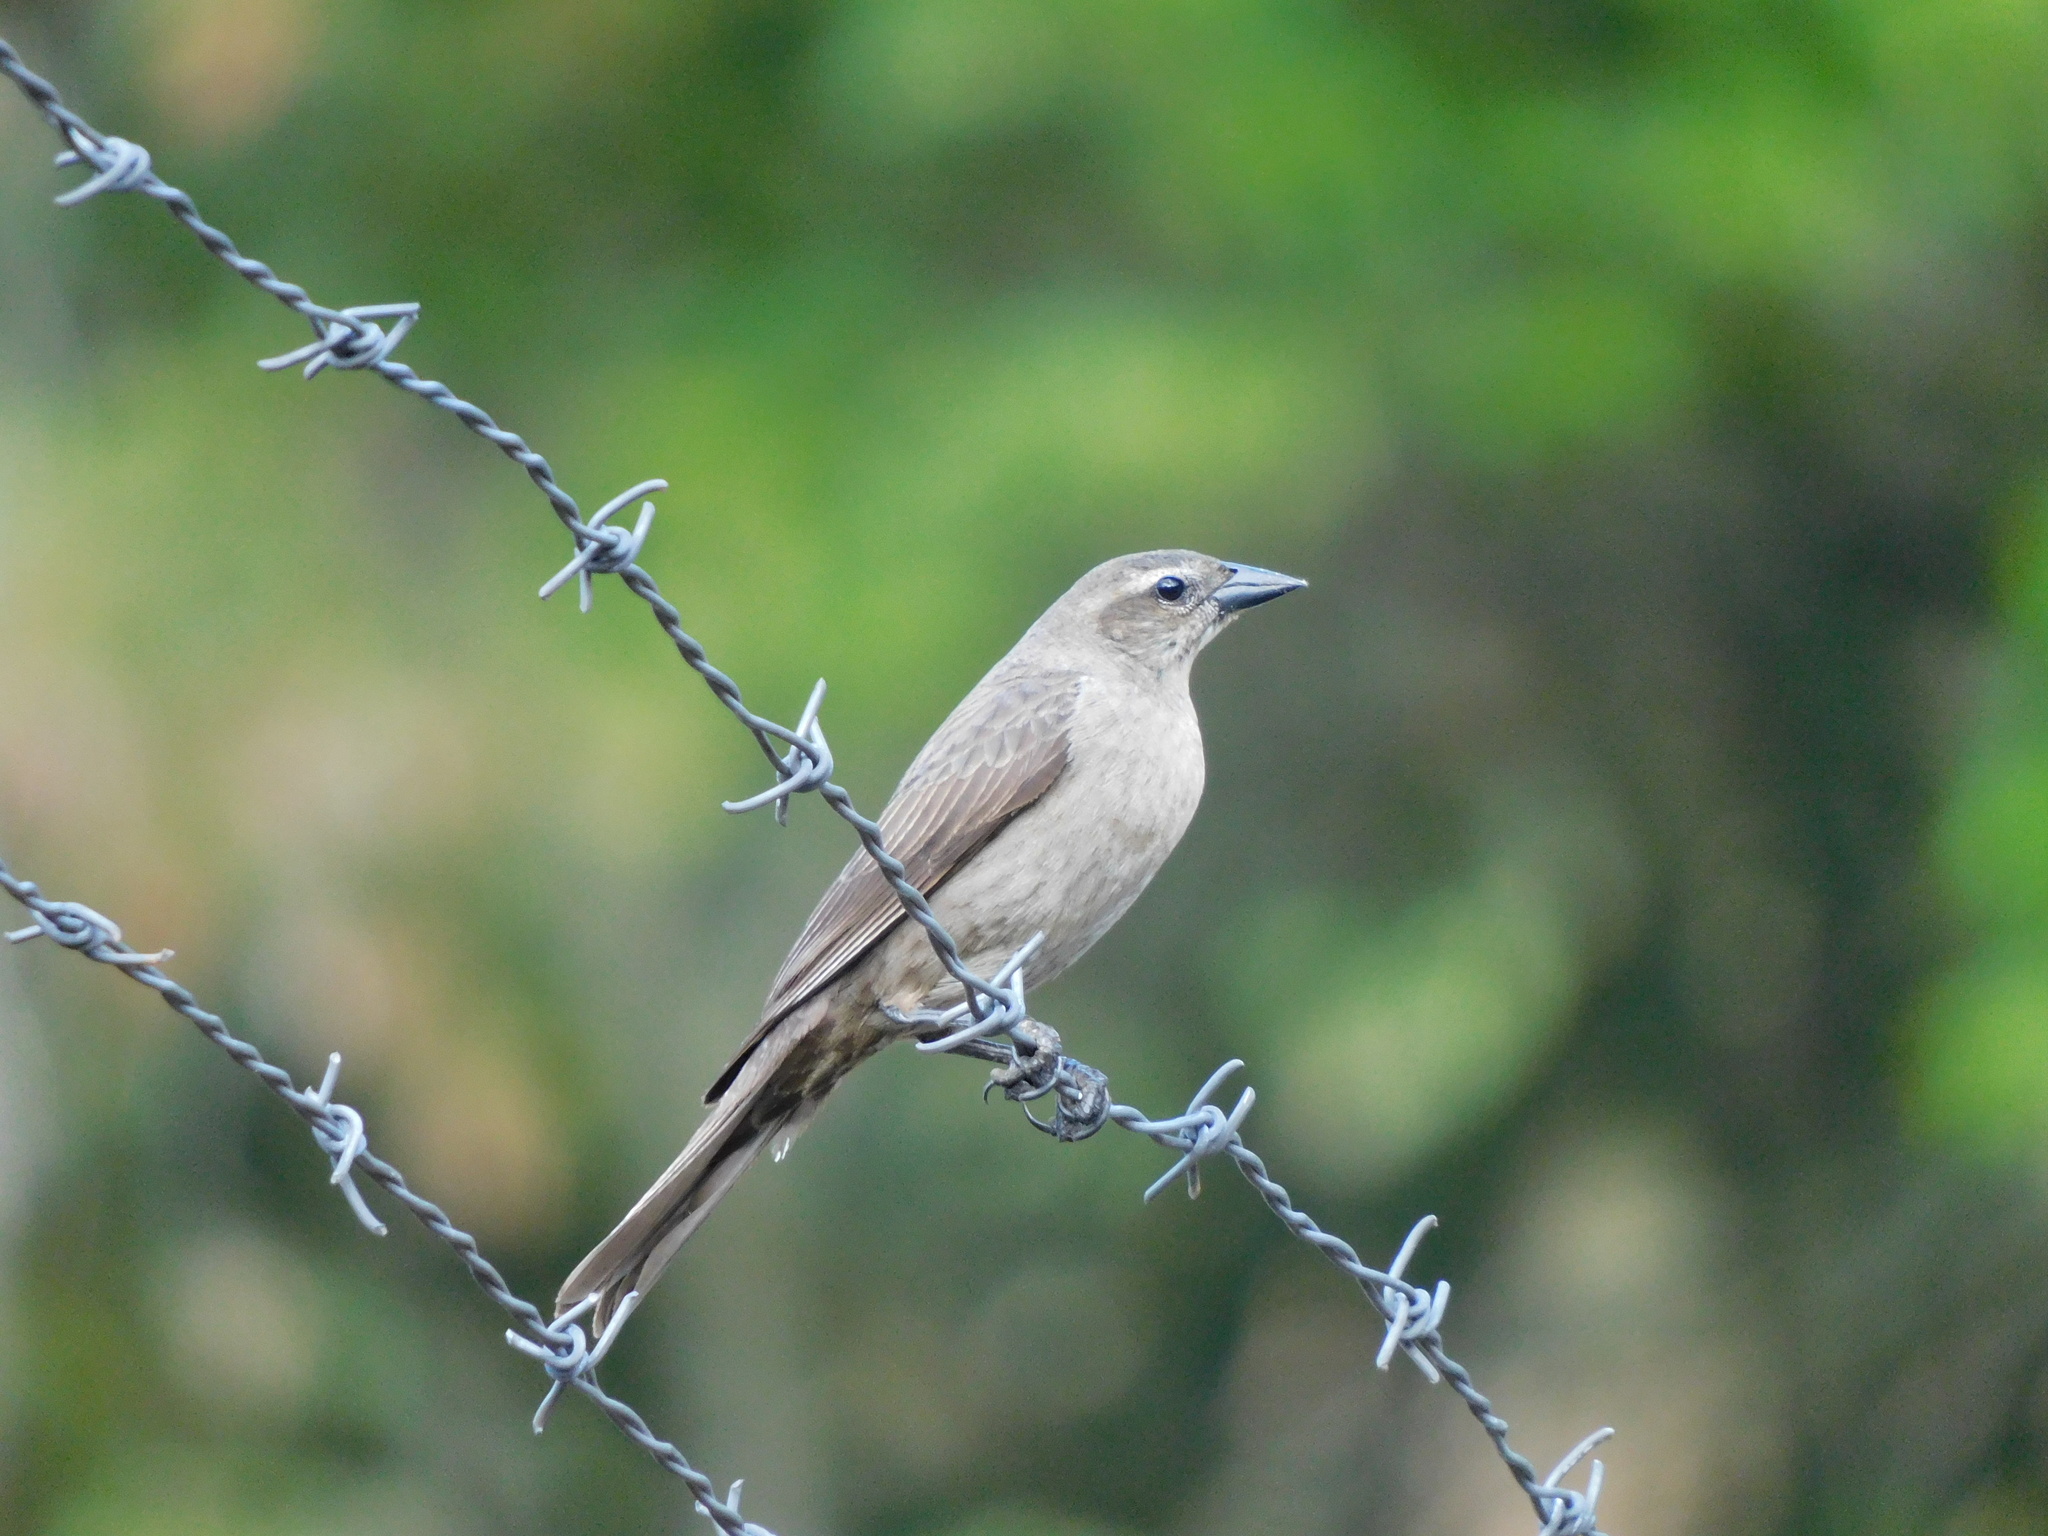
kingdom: Animalia
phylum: Chordata
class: Aves
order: Passeriformes
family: Icteridae
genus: Molothrus
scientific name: Molothrus bonariensis
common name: Shiny cowbird
